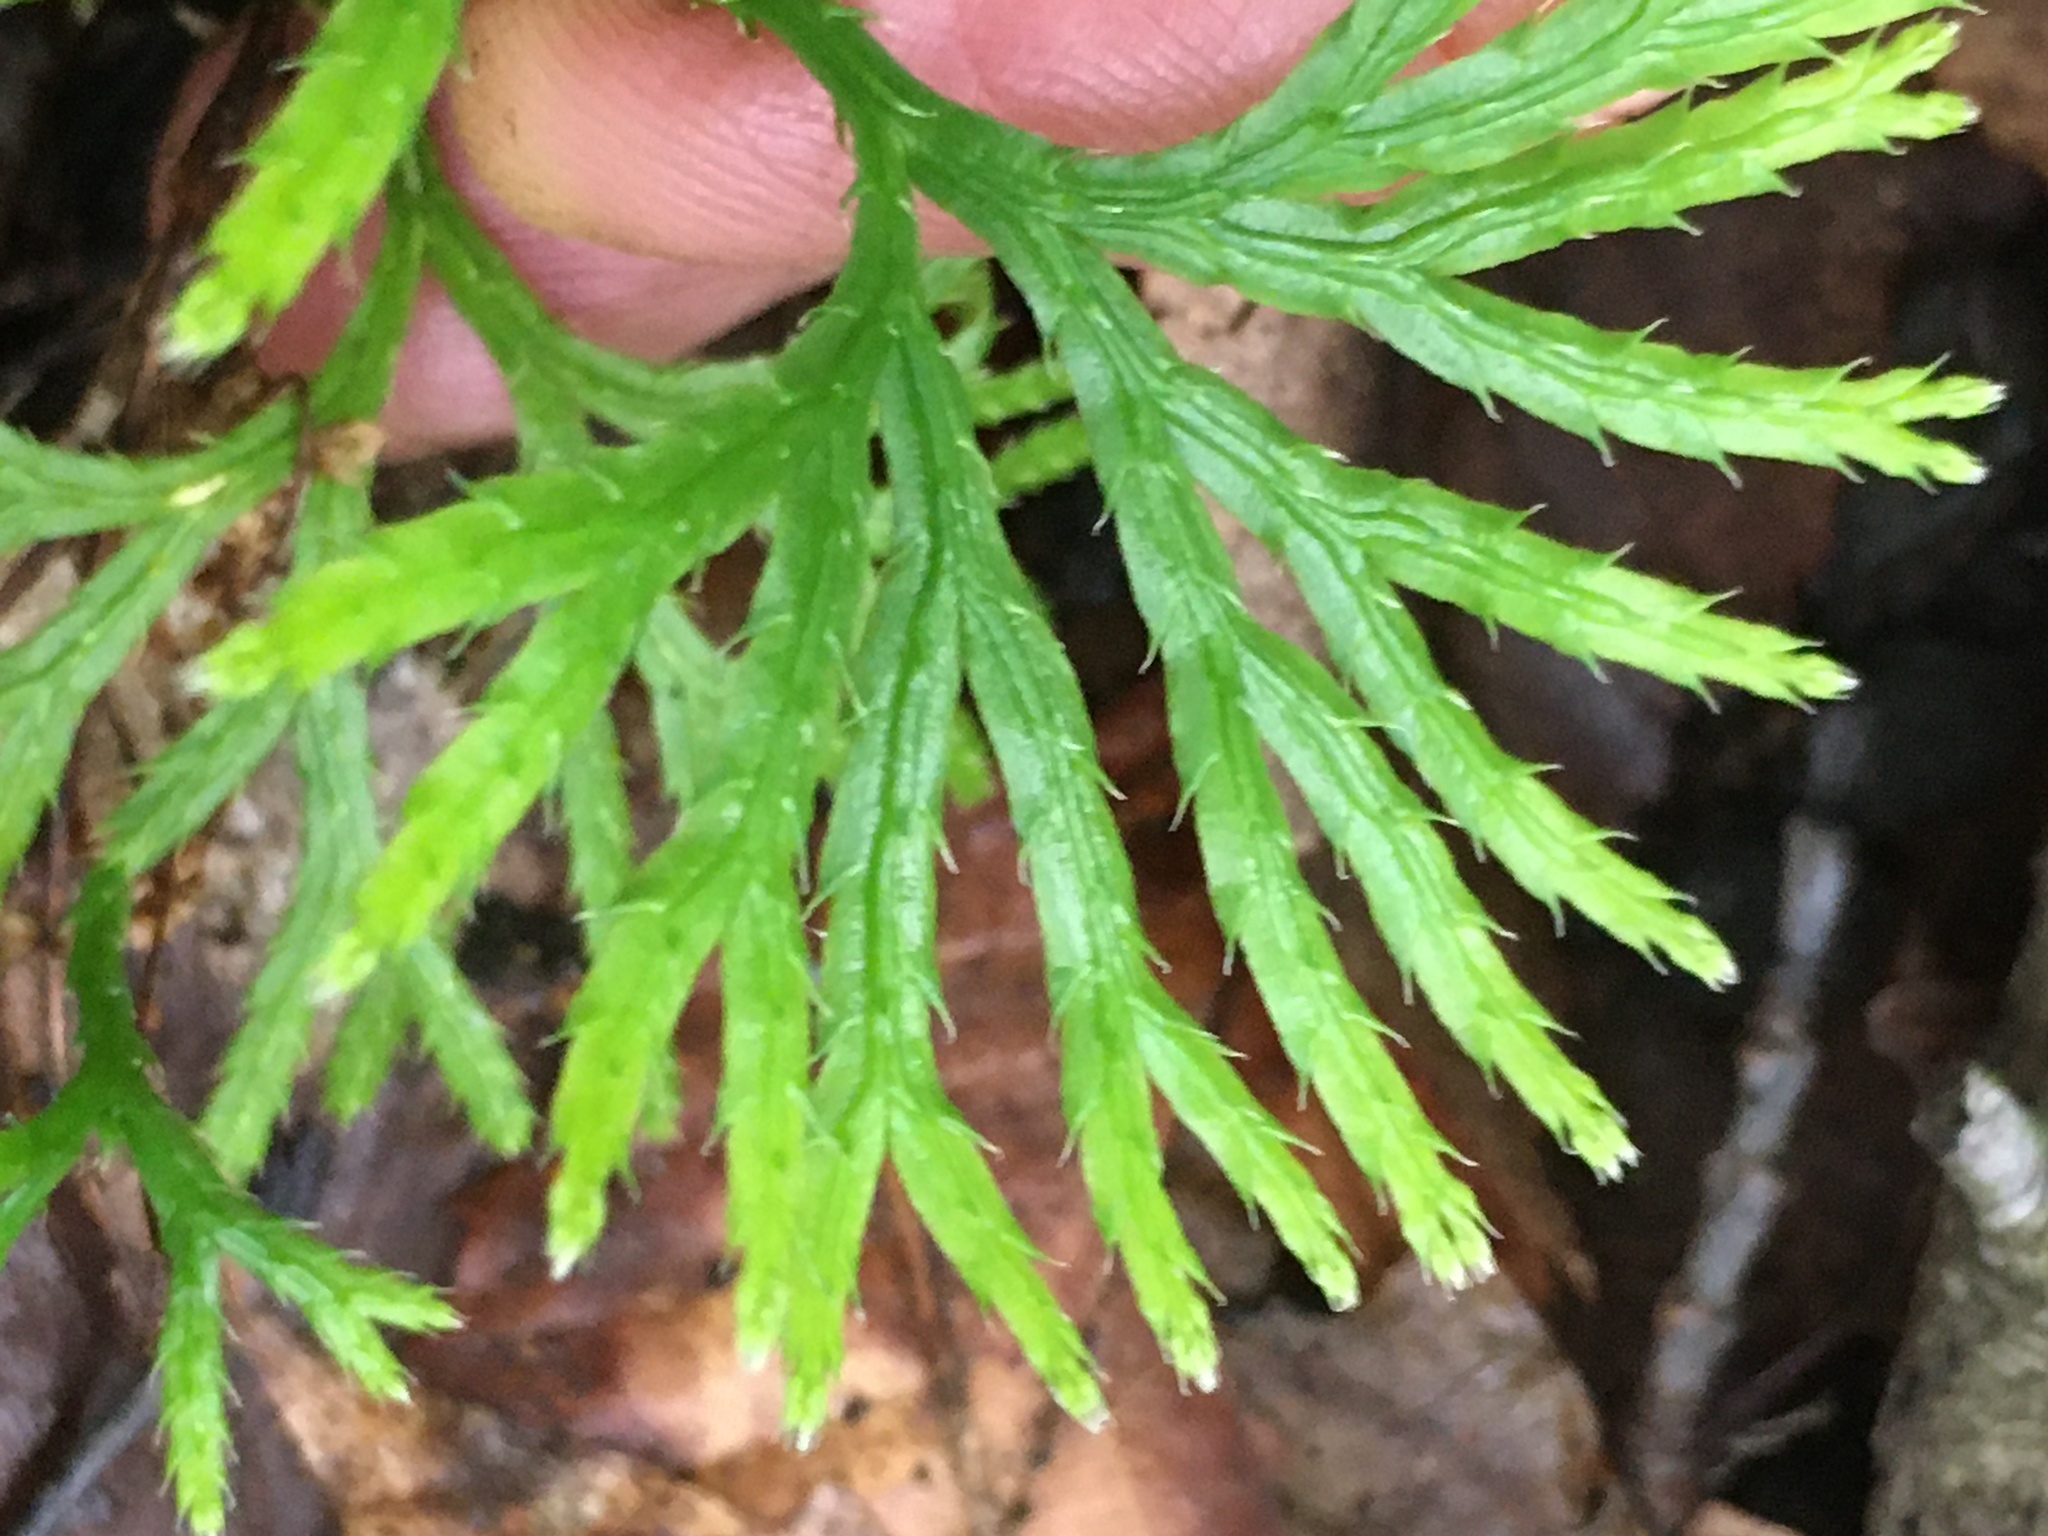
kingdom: Plantae
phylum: Tracheophyta
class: Lycopodiopsida
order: Lycopodiales
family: Lycopodiaceae
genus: Diphasiastrum
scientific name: Diphasiastrum digitatum
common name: Southern running-pine
